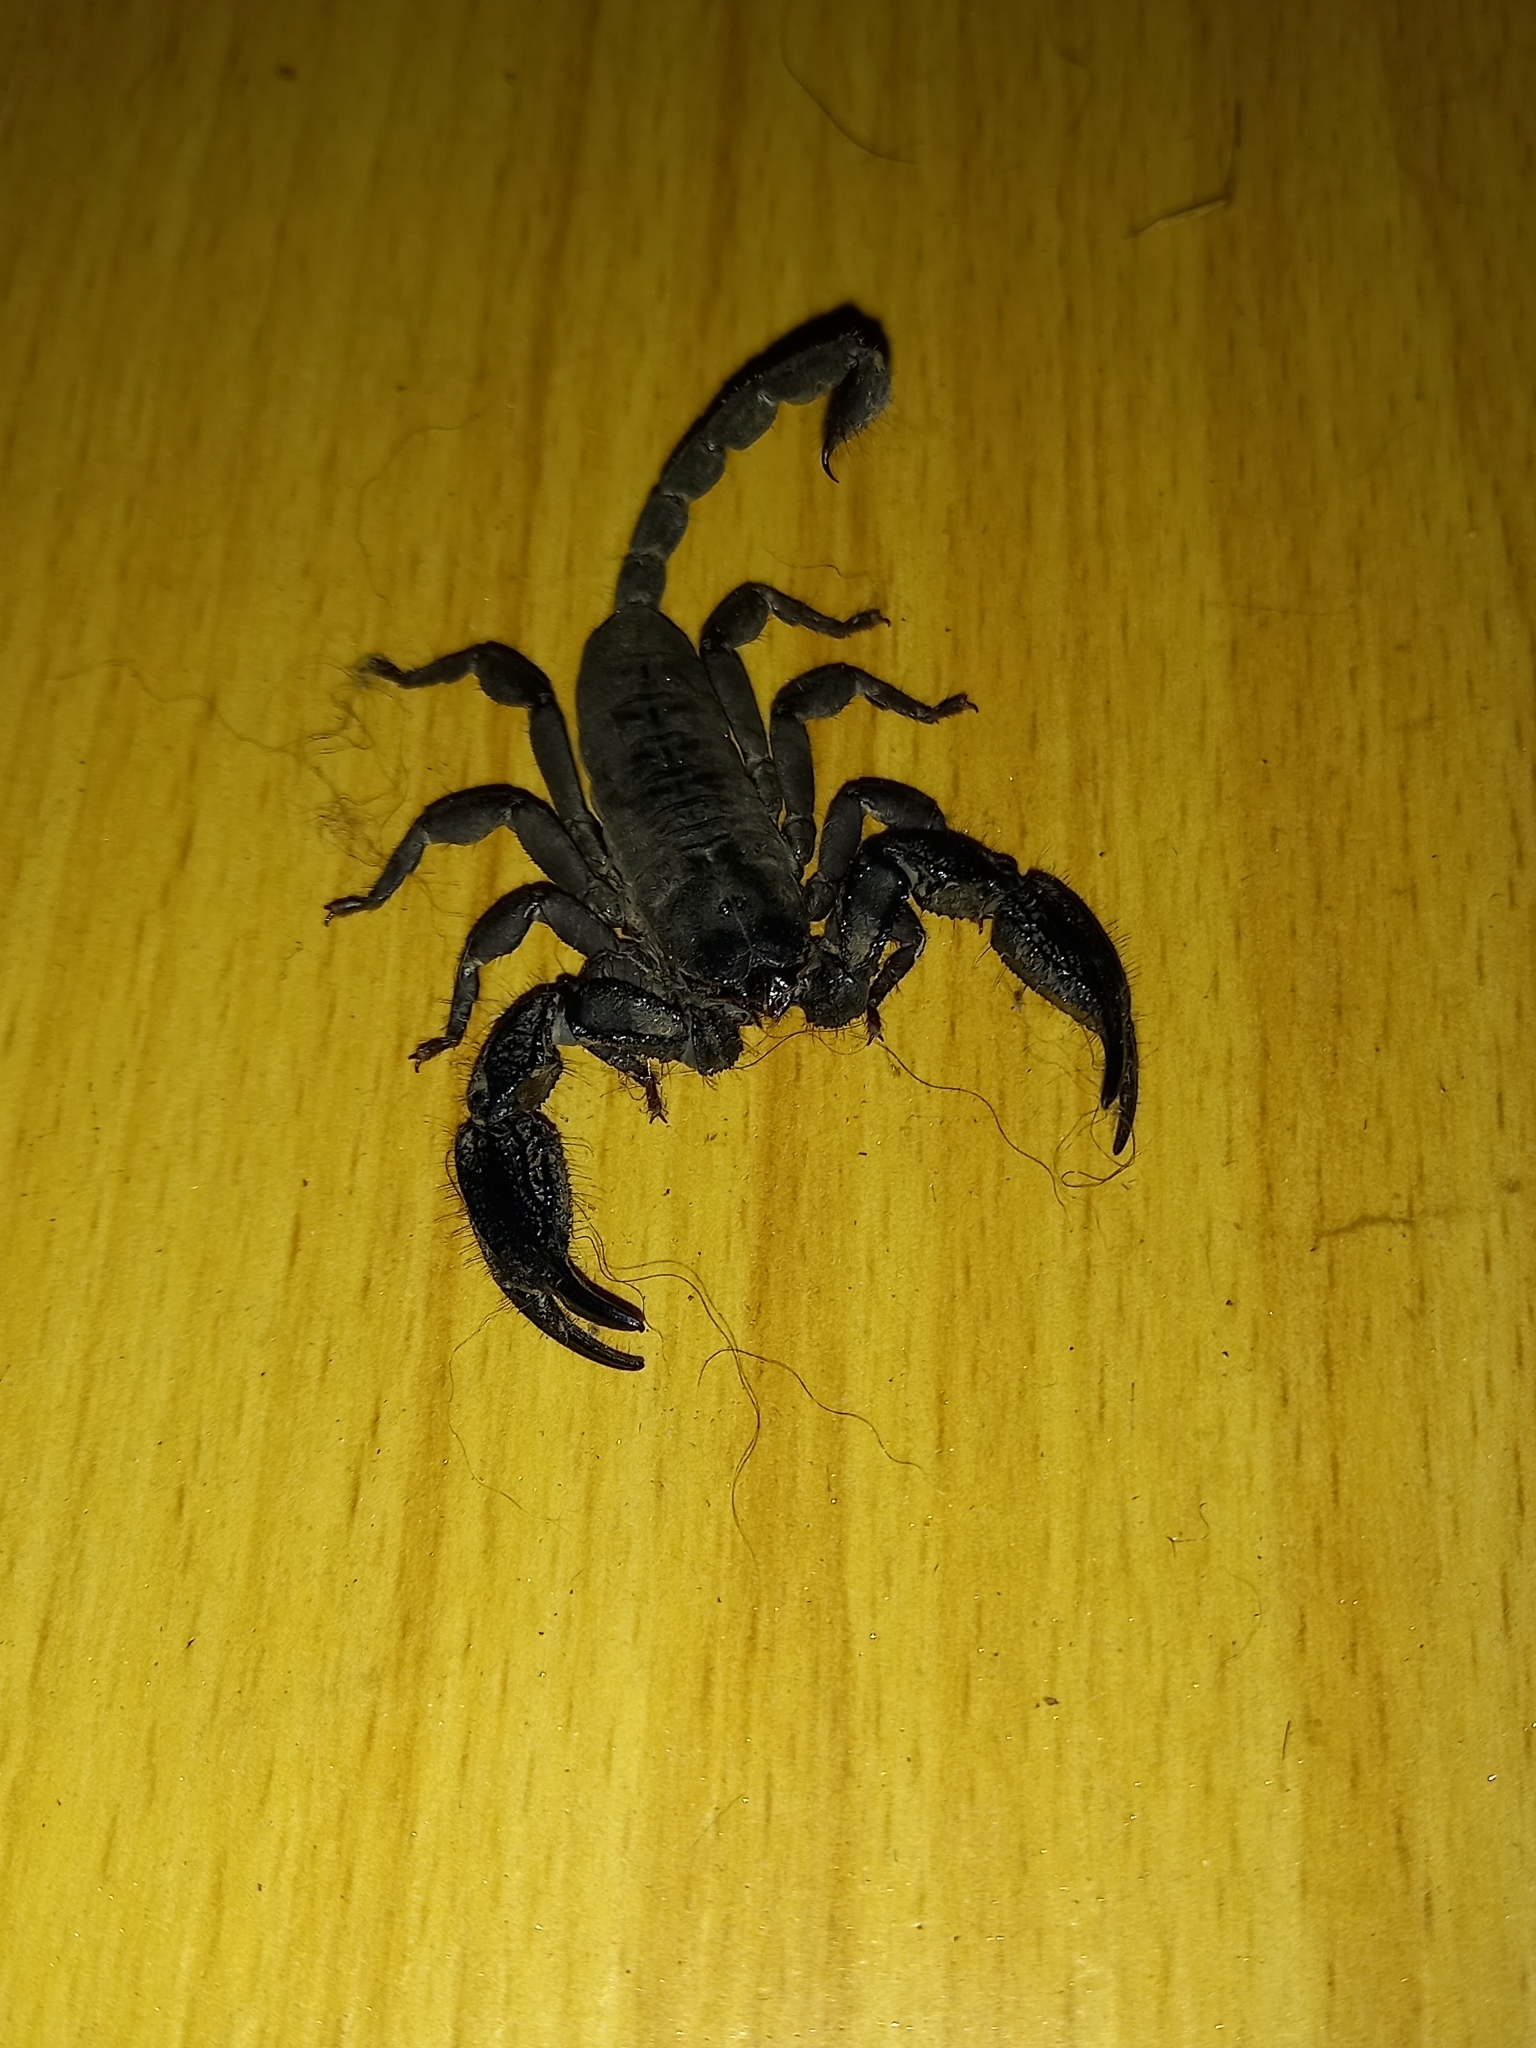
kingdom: Animalia
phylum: Arthropoda
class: Arachnida
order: Scorpiones
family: Hormuridae
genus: Opisthacanthus
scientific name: Opisthacanthus capensis
